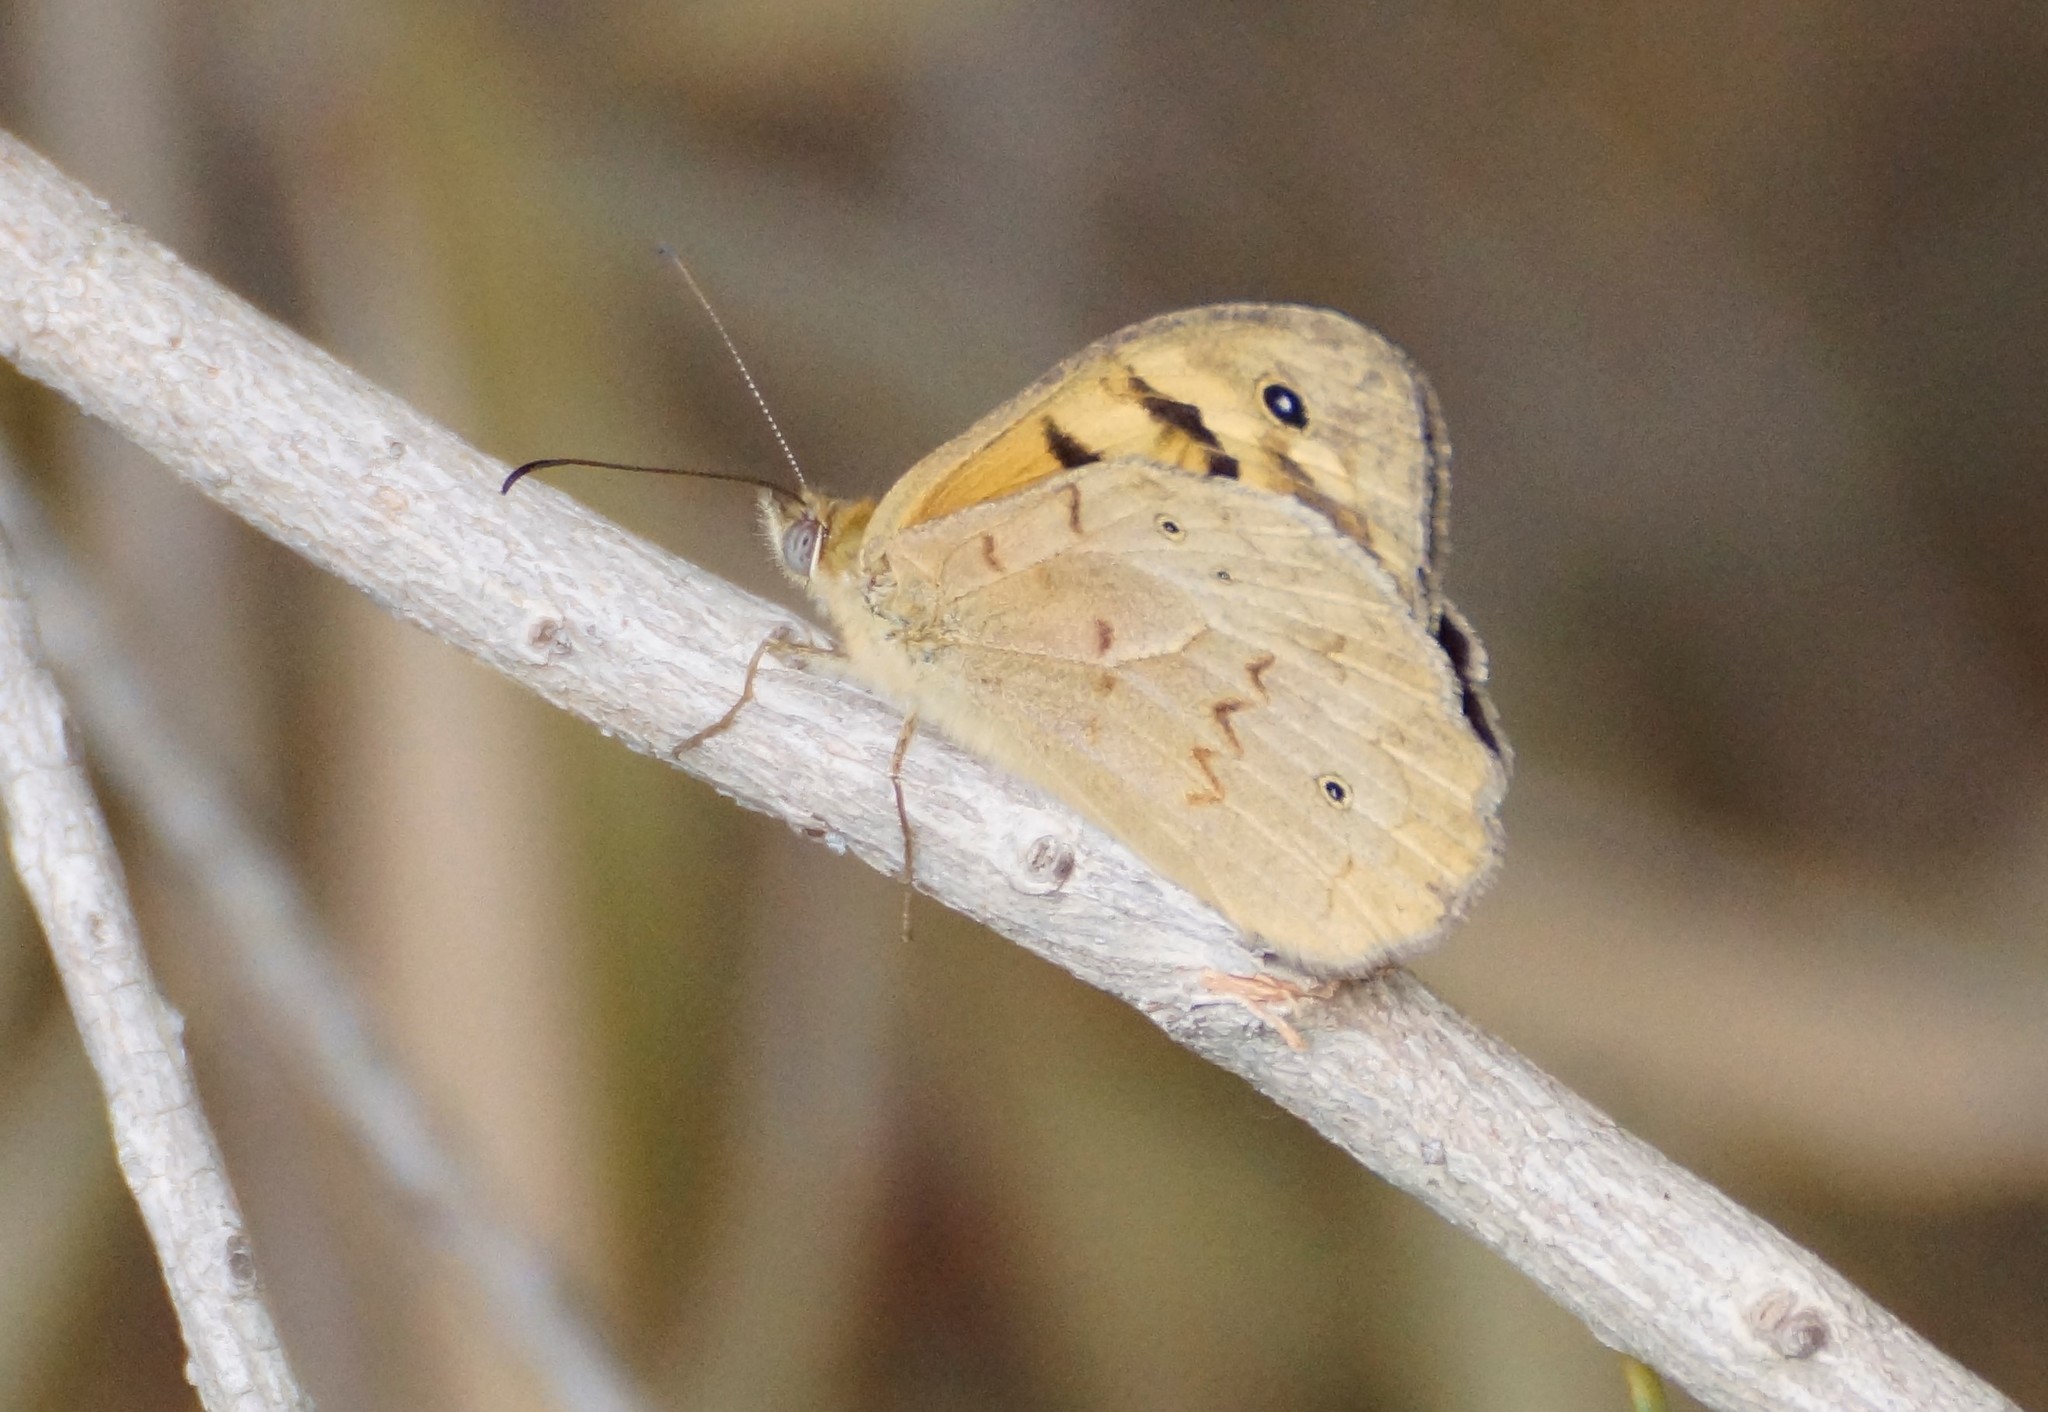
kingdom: Animalia
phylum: Arthropoda
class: Insecta
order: Lepidoptera
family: Nymphalidae
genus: Heteronympha
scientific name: Heteronympha merope
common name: Common brown
